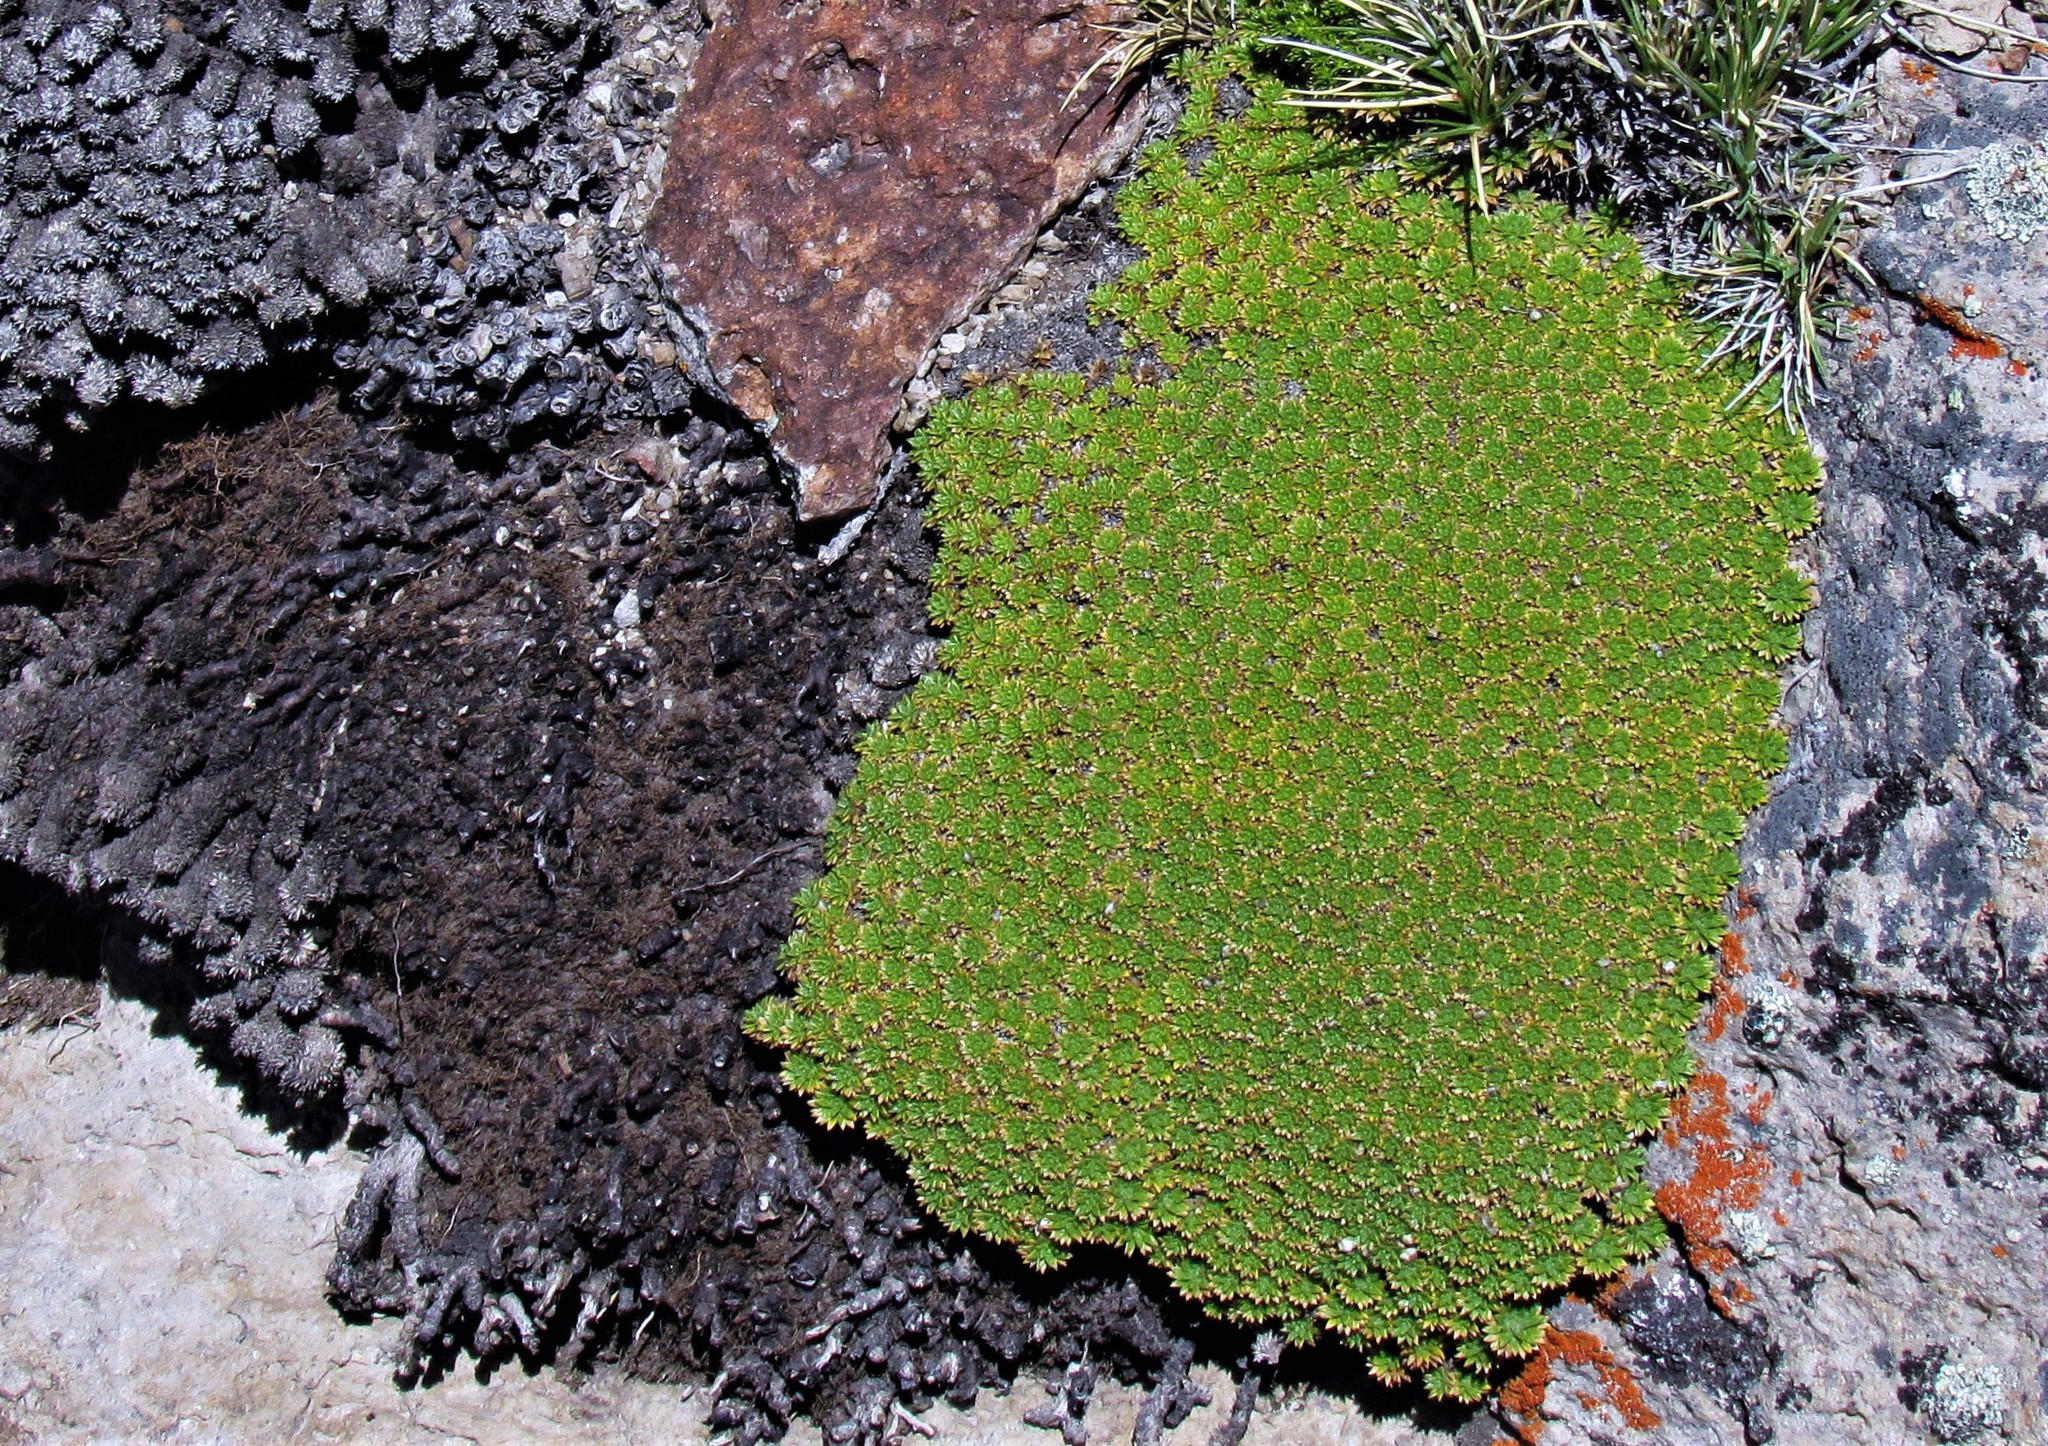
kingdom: Plantae
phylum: Tracheophyta
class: Magnoliopsida
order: Apiales
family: Apiaceae
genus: Azorella
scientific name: Azorella monantha
